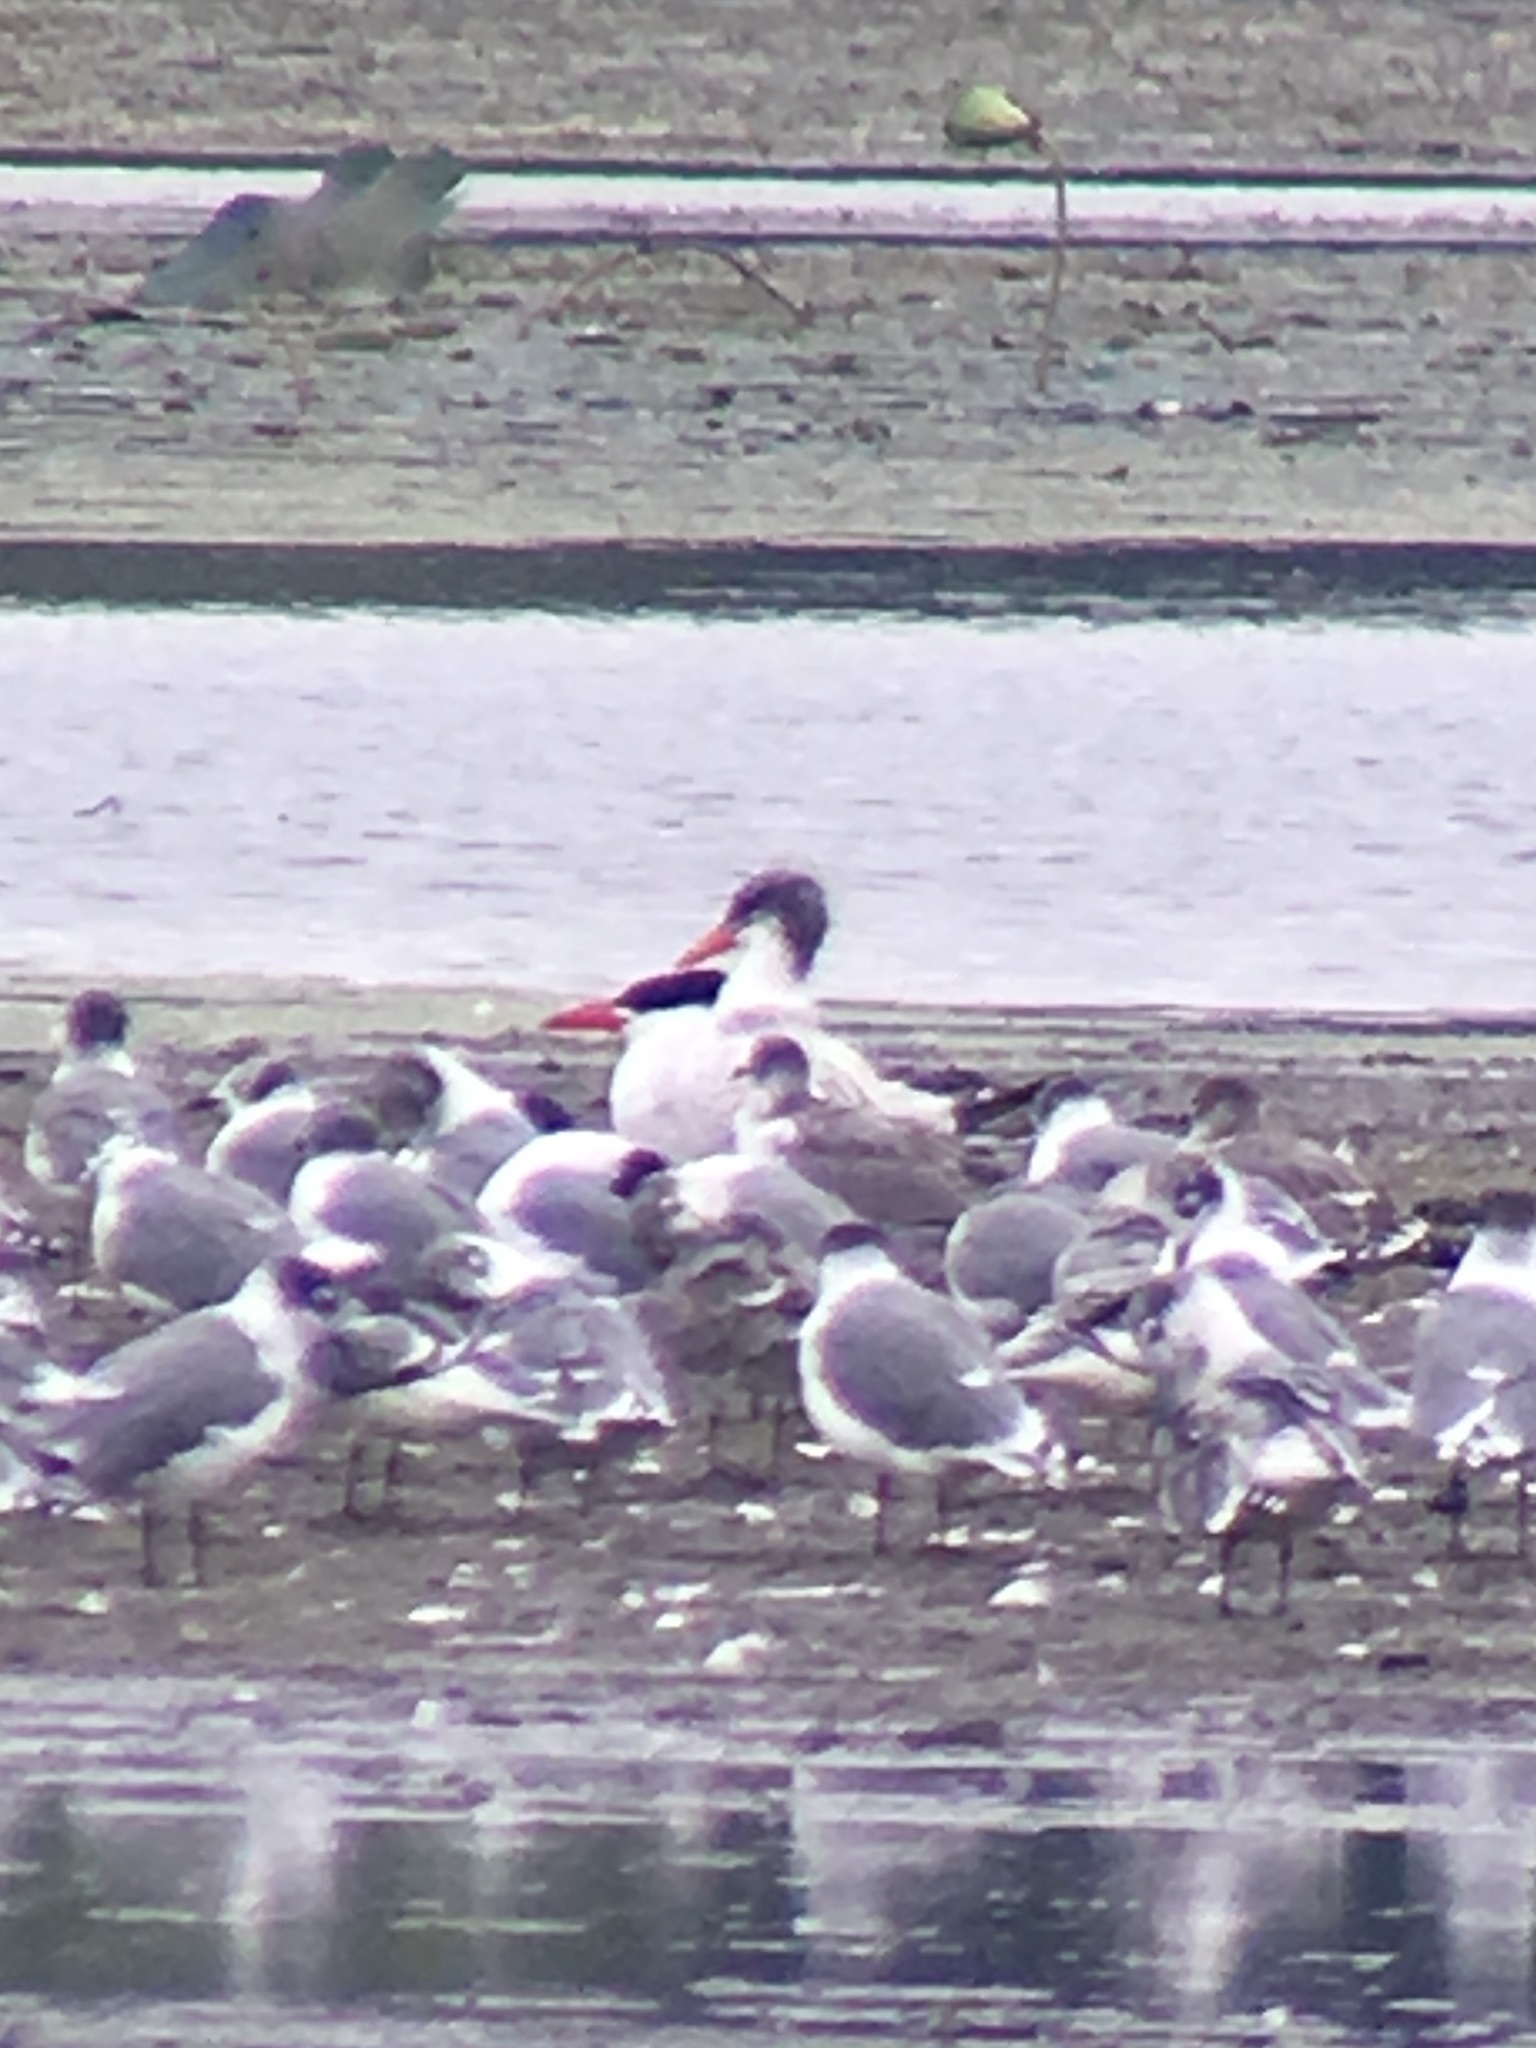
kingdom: Animalia
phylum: Chordata
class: Aves
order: Charadriiformes
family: Laridae
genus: Hydroprogne
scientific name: Hydroprogne caspia
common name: Caspian tern
